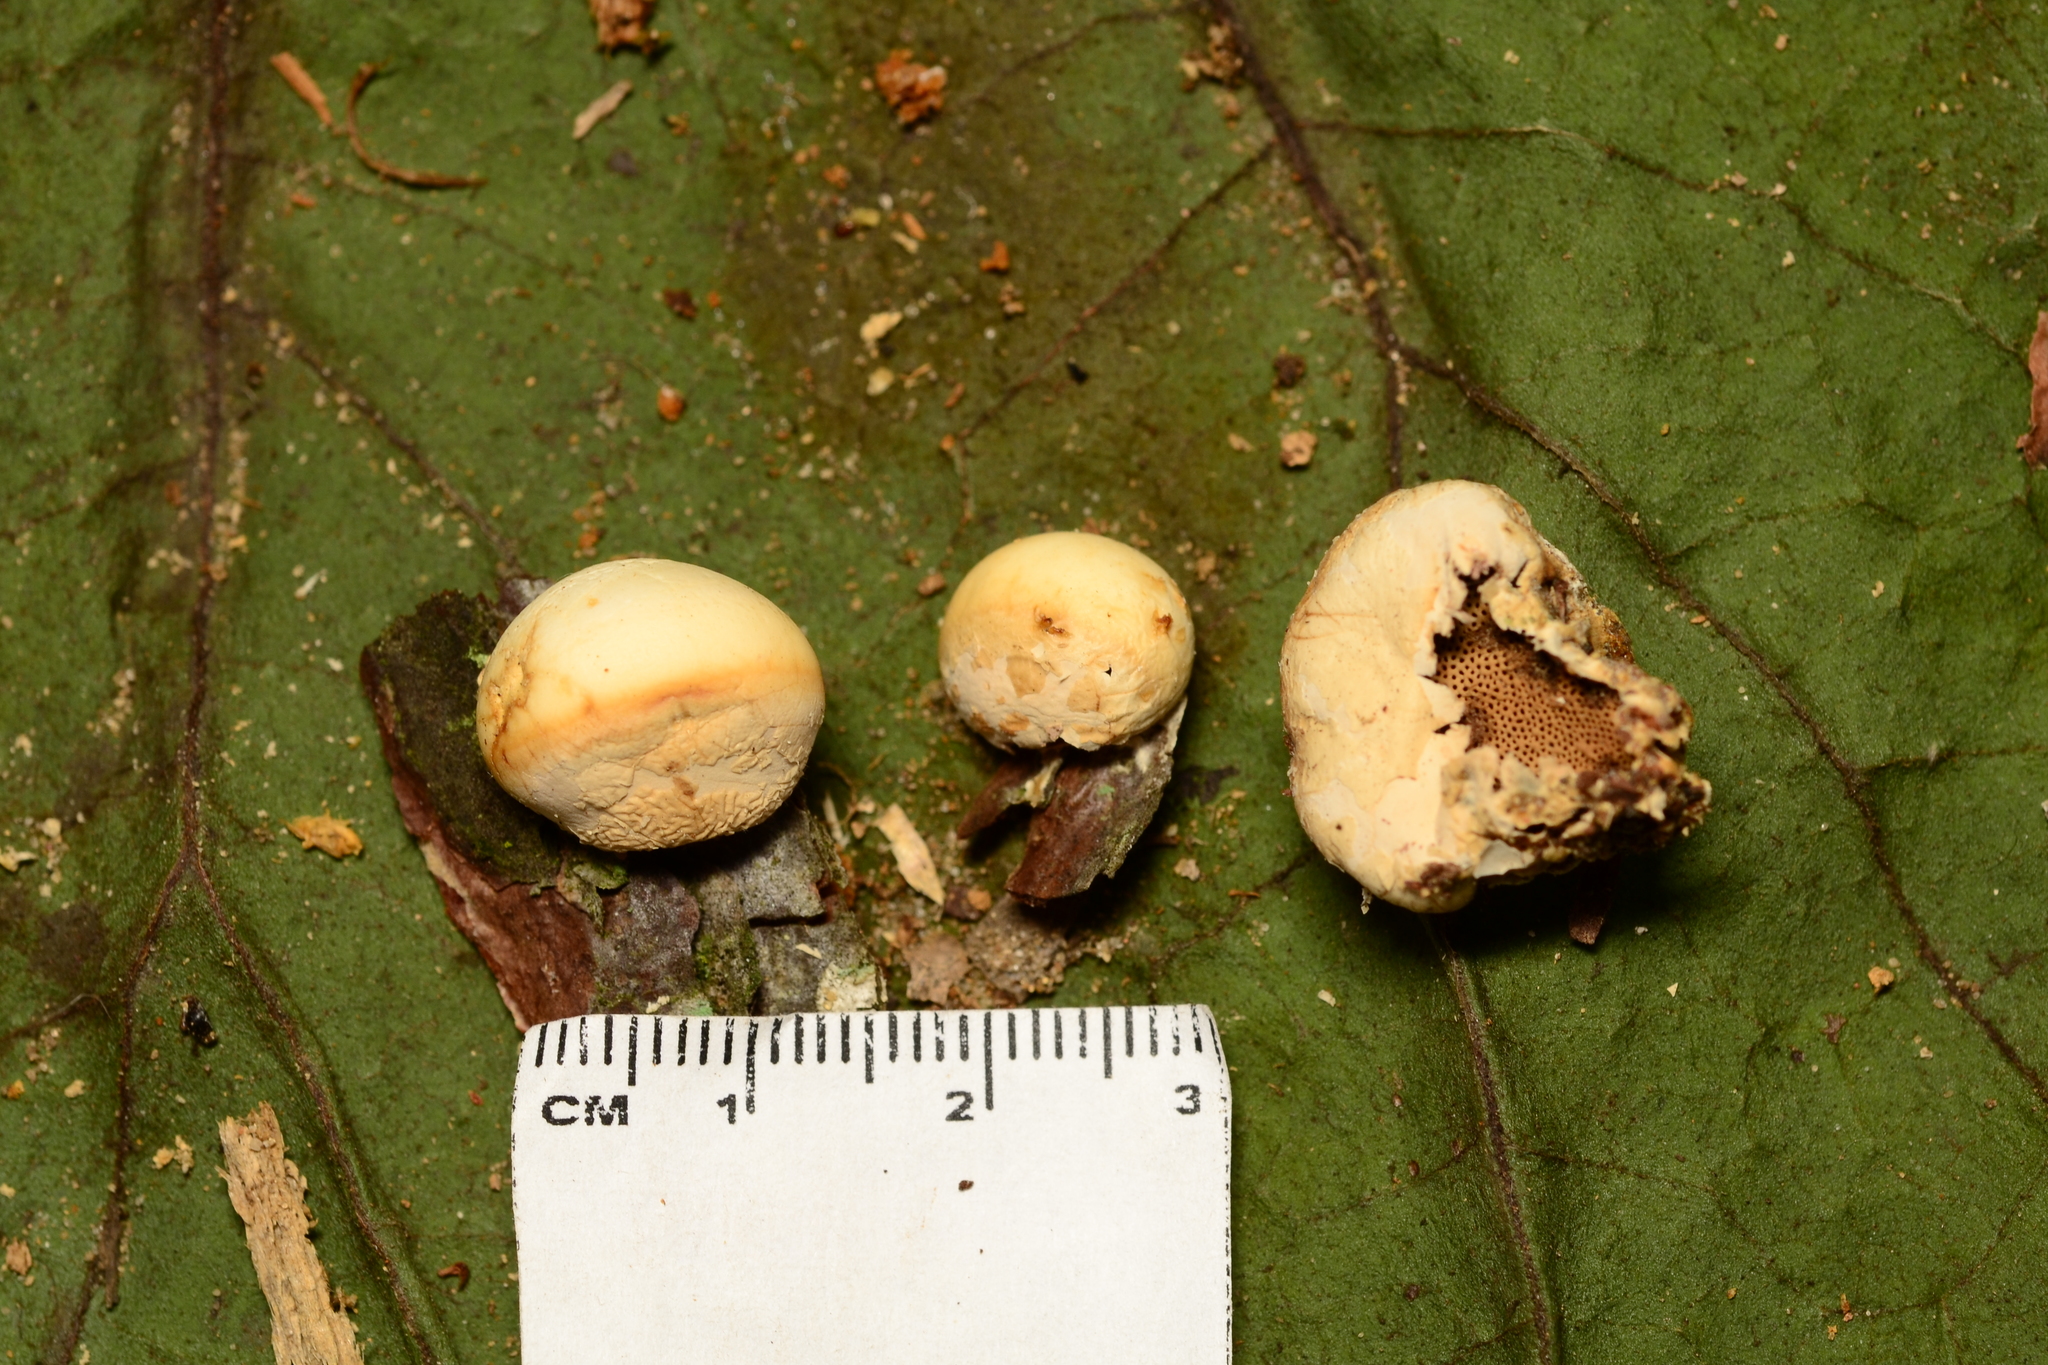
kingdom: Fungi
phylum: Basidiomycota
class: Agaricomycetes
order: Polyporales
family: Polyporaceae
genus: Cryptoporus
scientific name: Cryptoporus volvatus
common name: Veiled polypore
